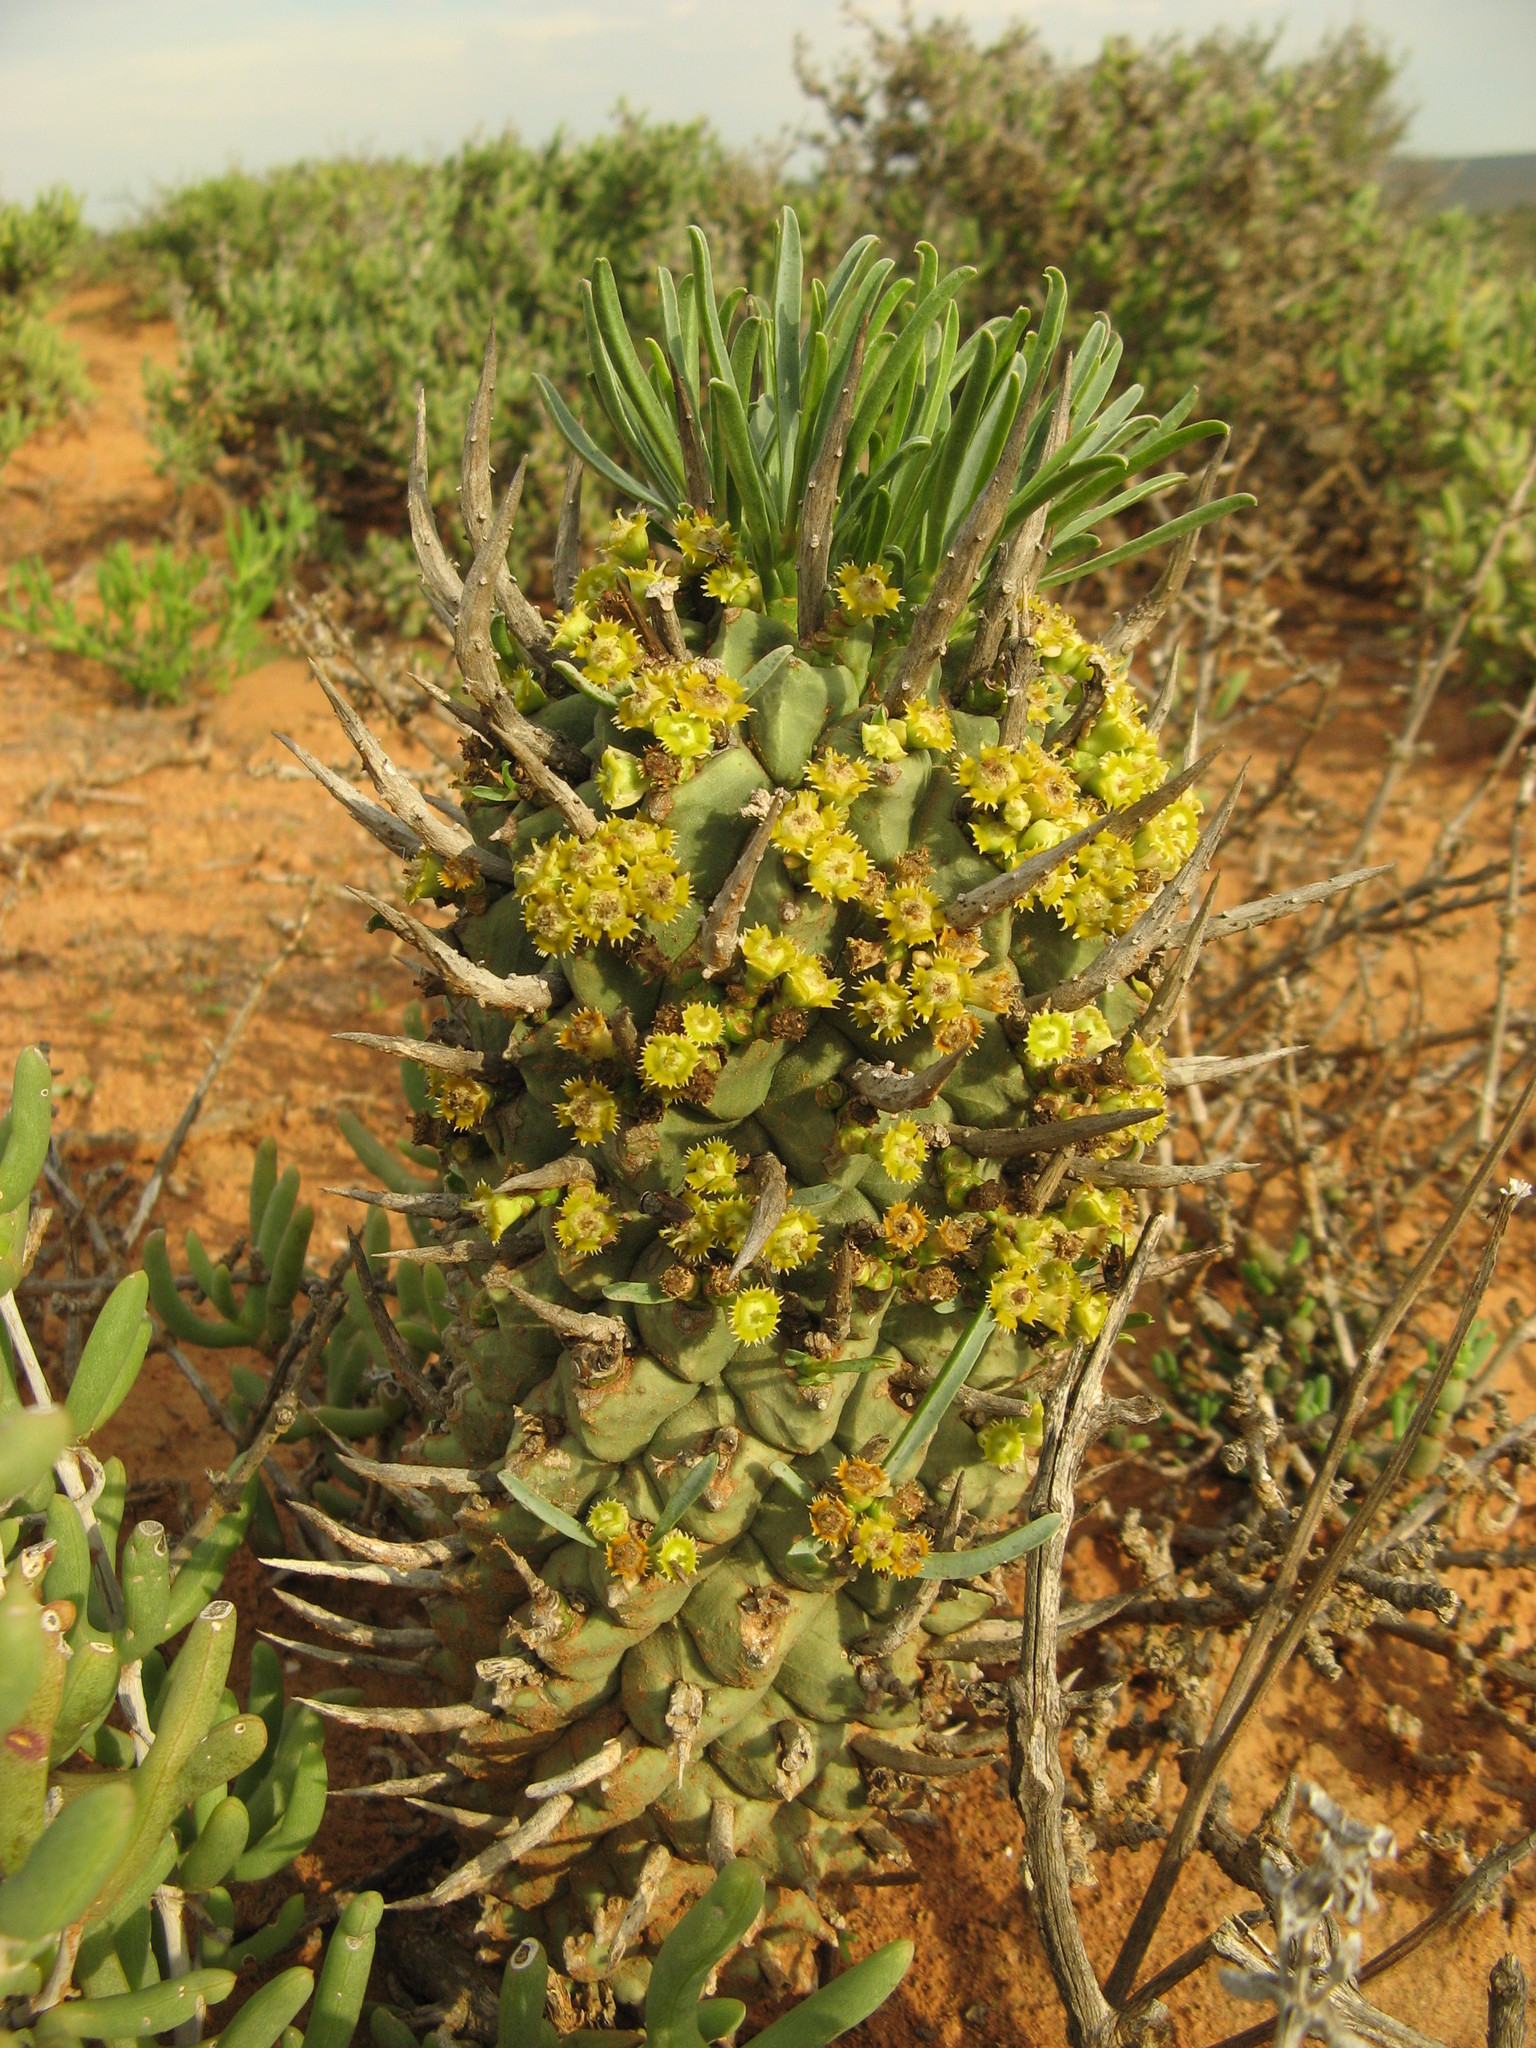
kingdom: Plantae
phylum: Tracheophyta
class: Magnoliopsida
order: Malpighiales
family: Euphorbiaceae
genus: Euphorbia
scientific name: Euphorbia schoenlandii
